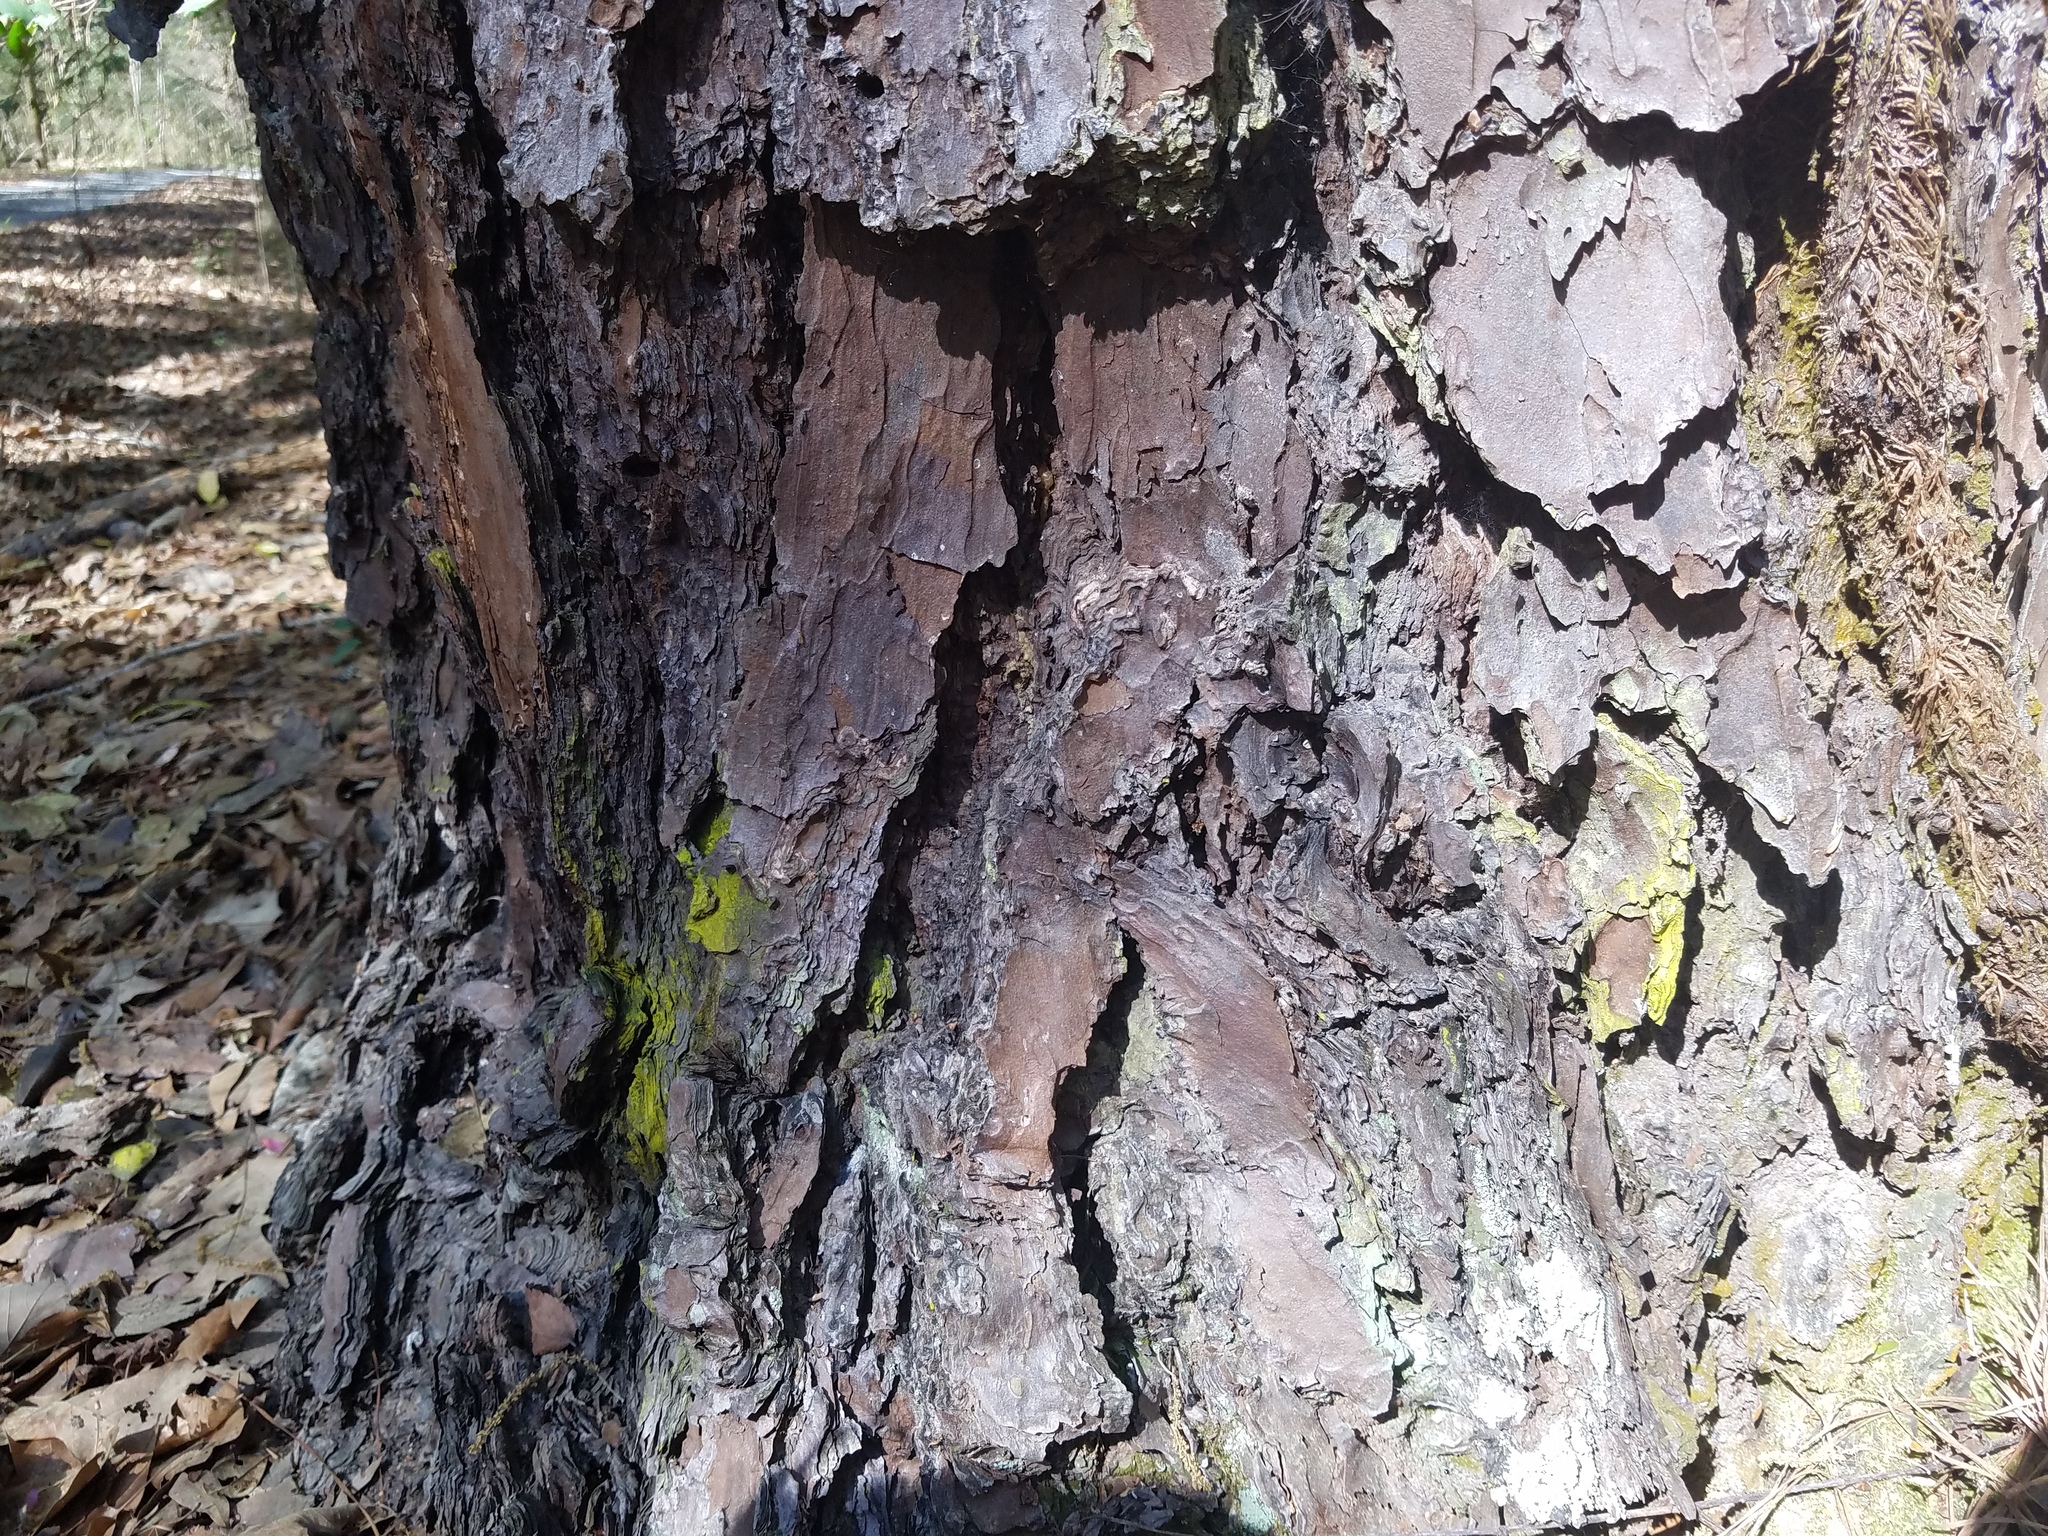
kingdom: Fungi
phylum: Ascomycota
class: Arthoniomycetes
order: Arthoniales
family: Chrysotrichaceae
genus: Chrysothrix
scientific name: Chrysothrix xanthina
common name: Common gold-dust
